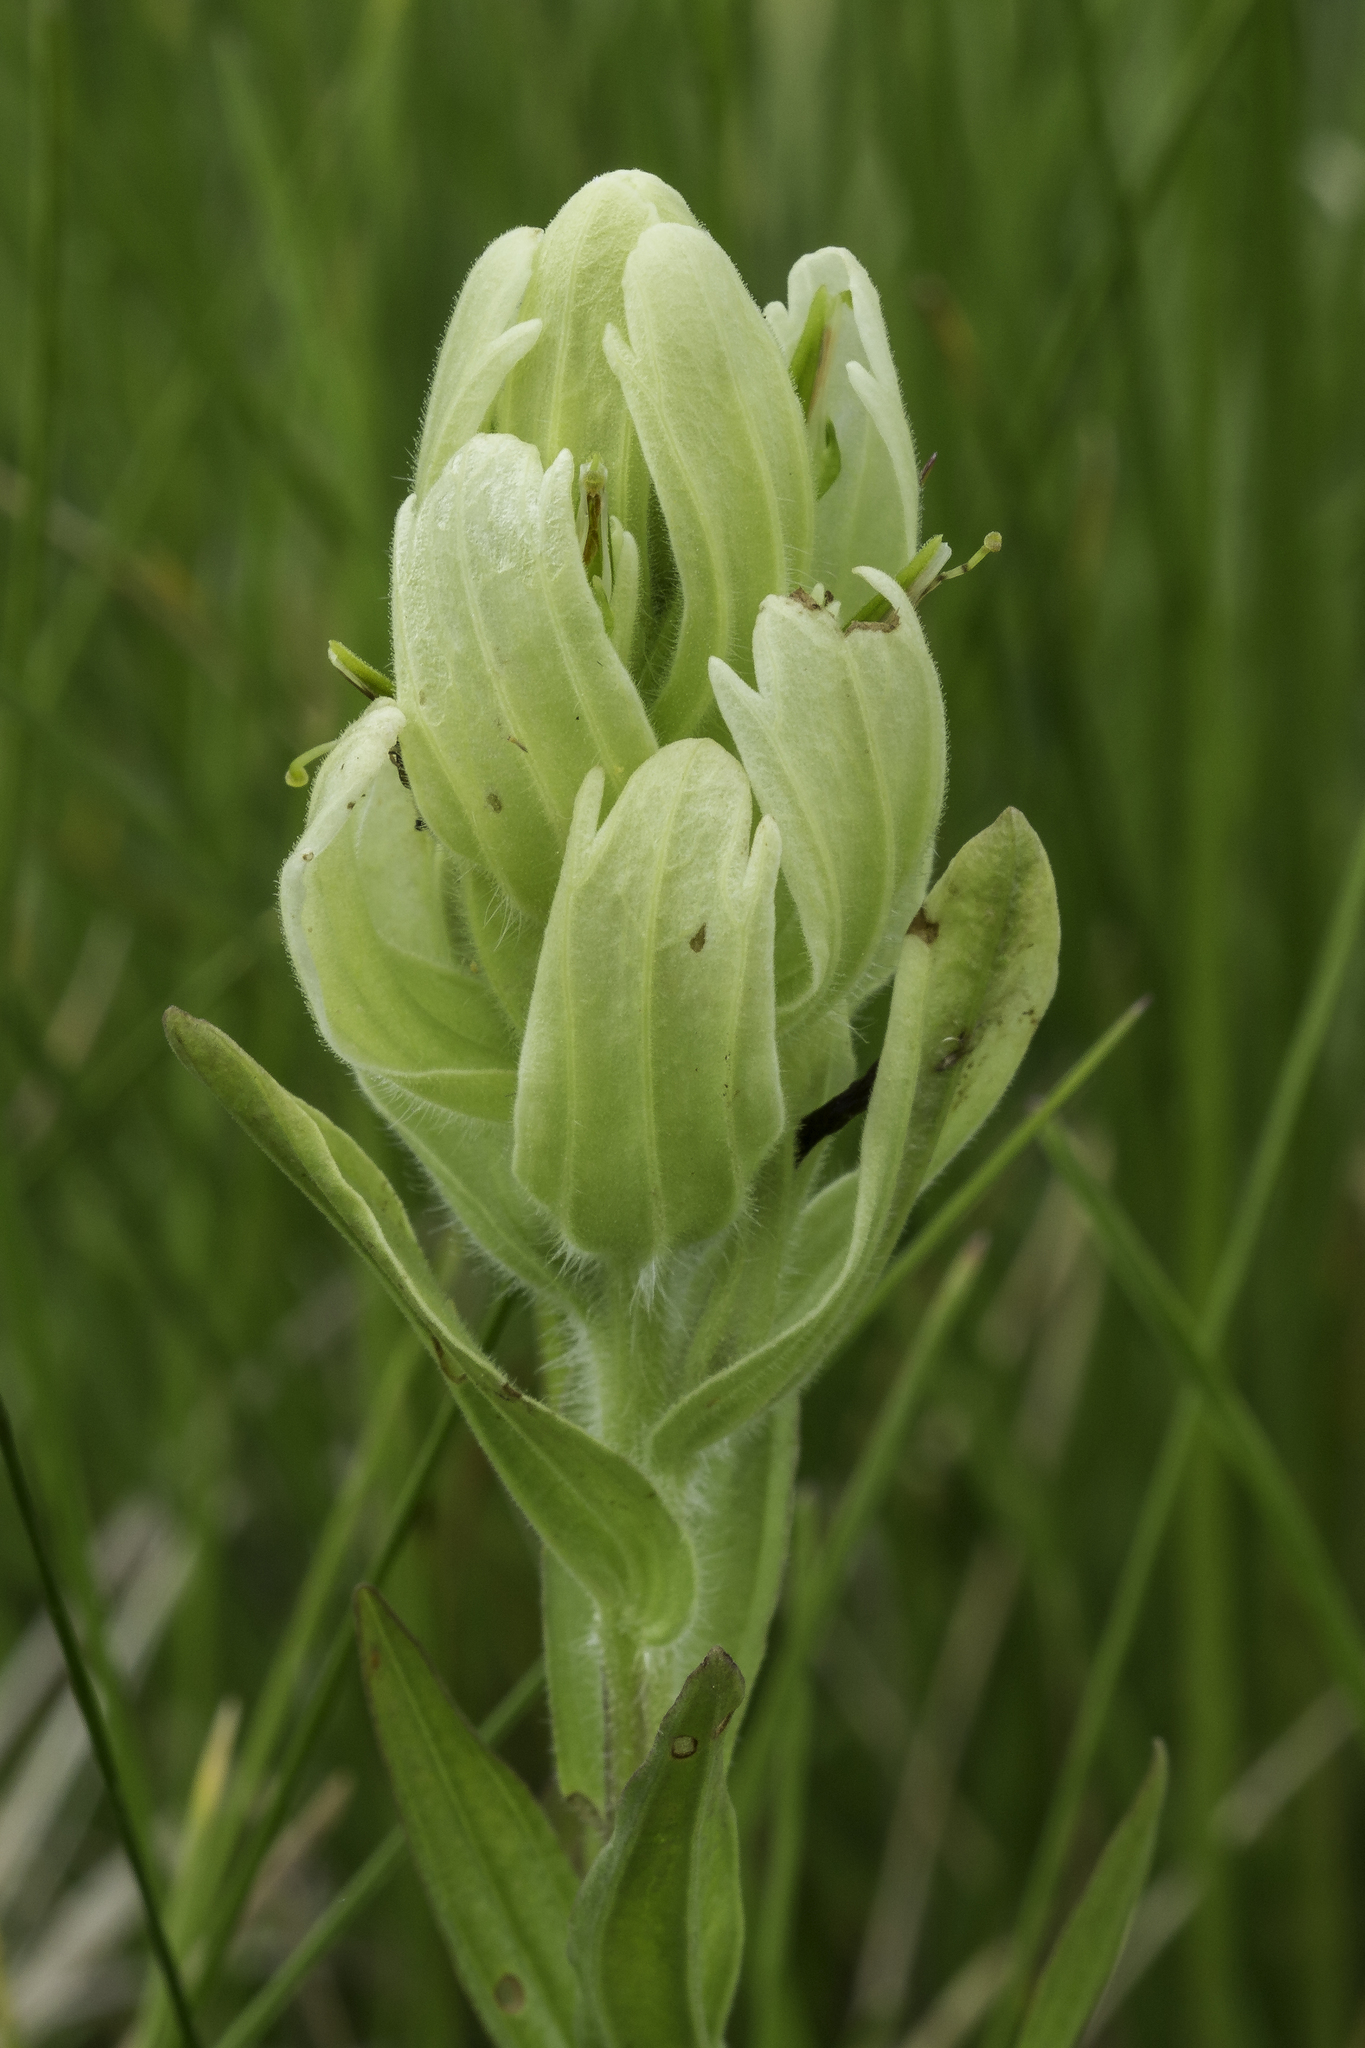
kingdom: Plantae
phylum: Tracheophyta
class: Magnoliopsida
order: Lamiales
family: Orobanchaceae
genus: Castilleja
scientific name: Castilleja septentrionalis
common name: Northeastern paintbrush
